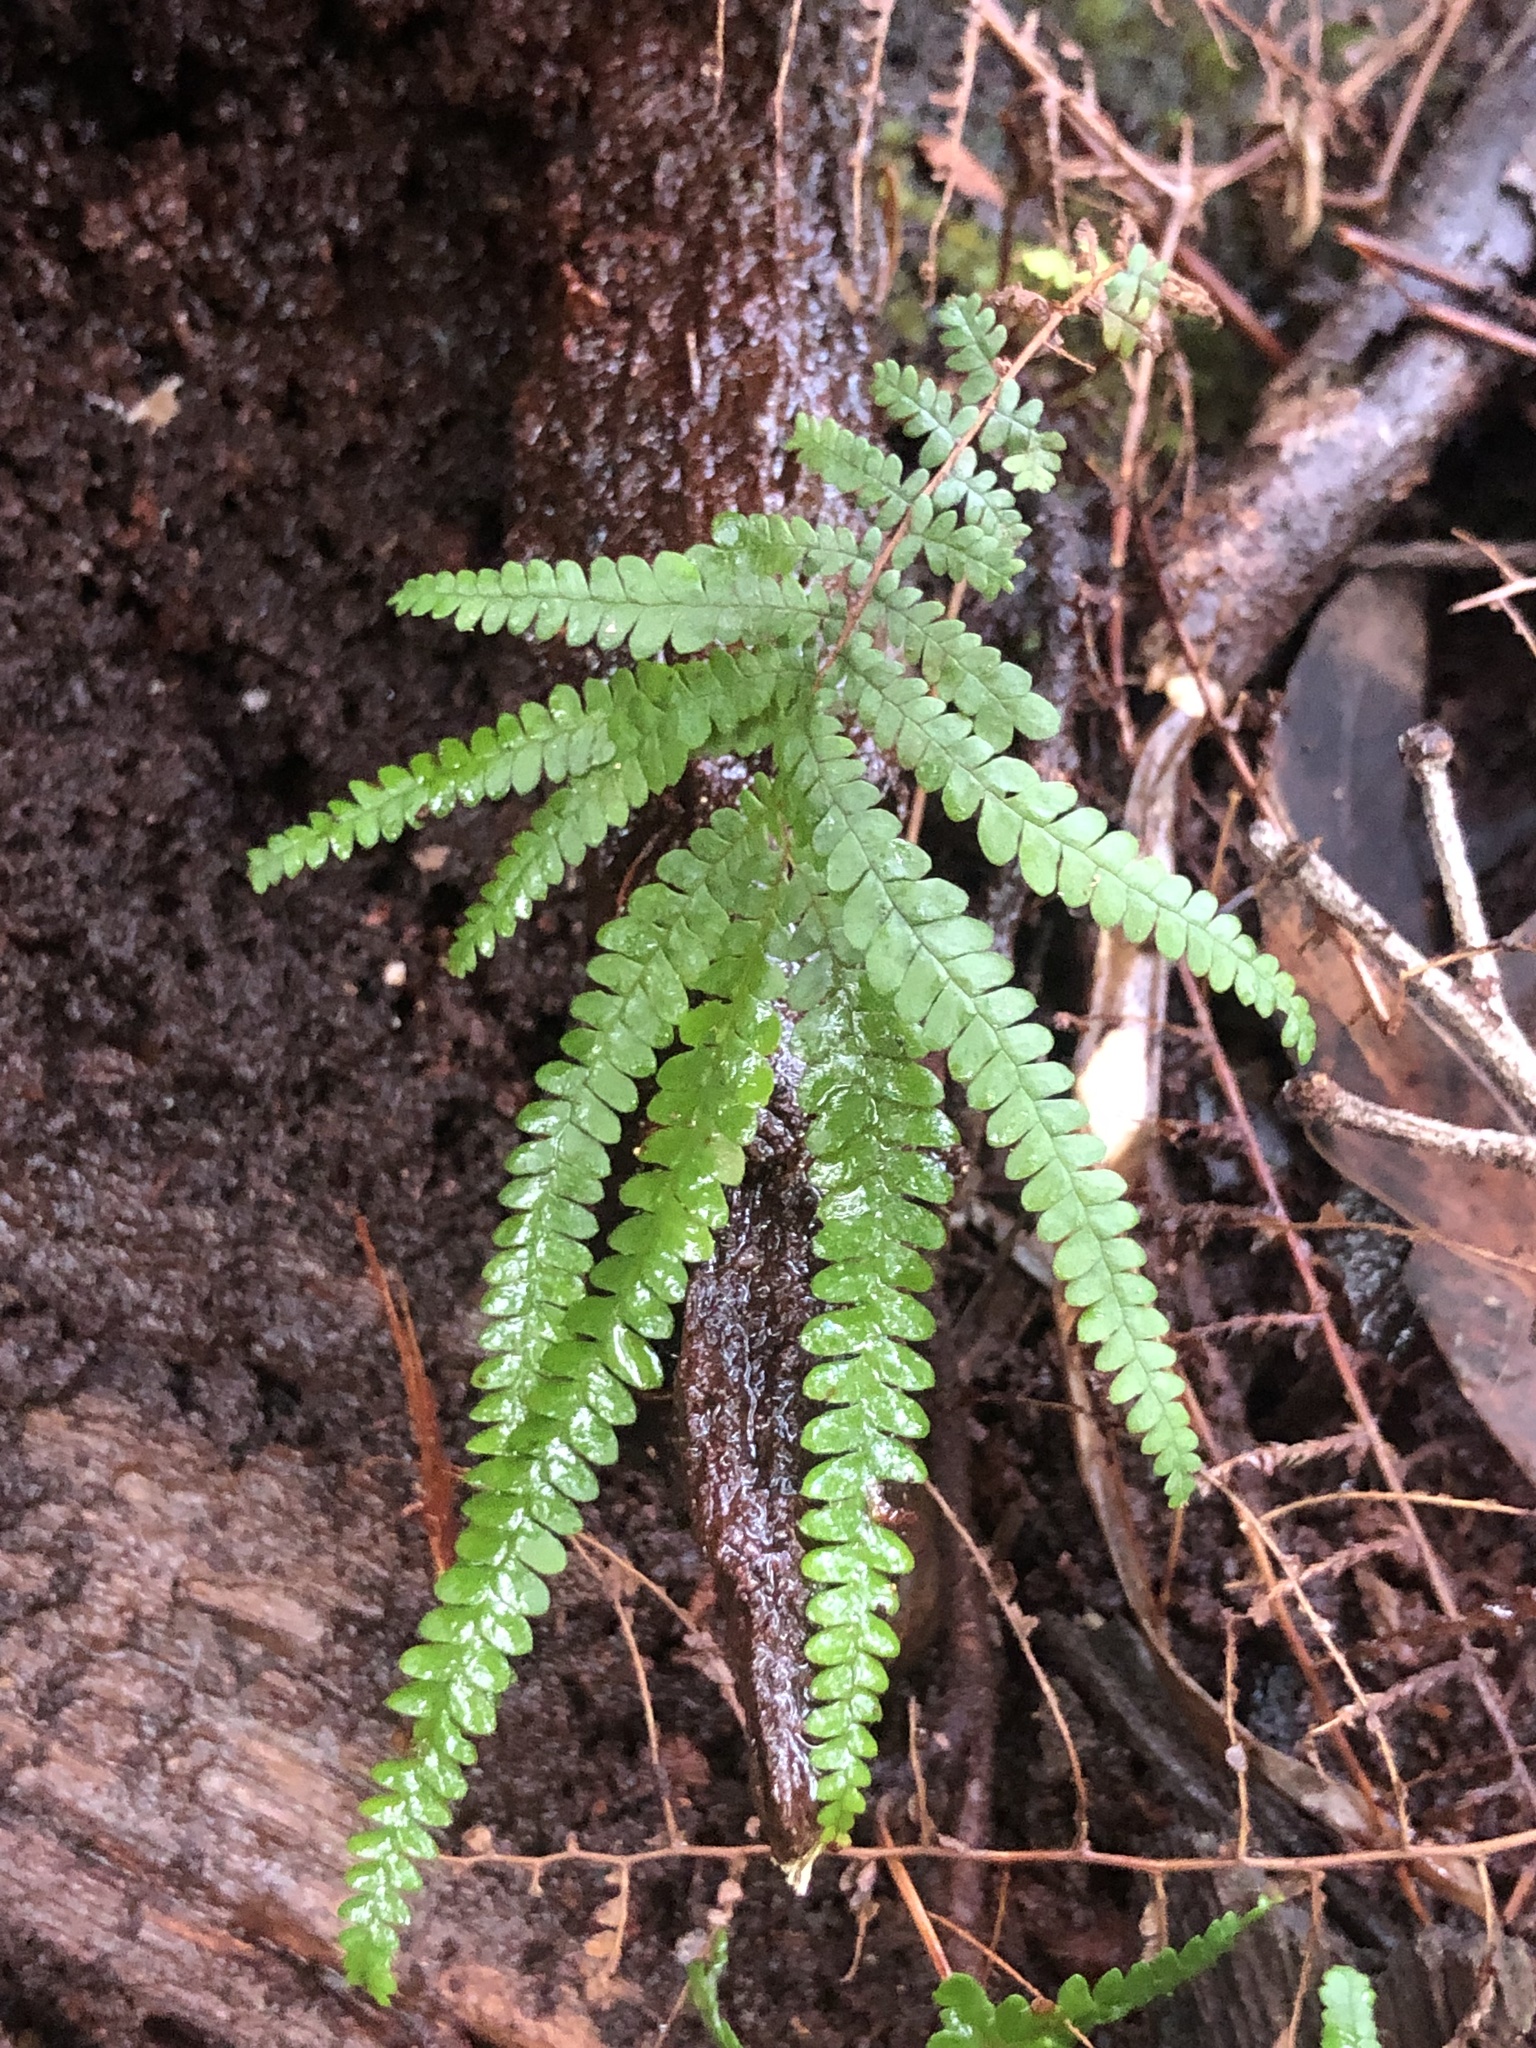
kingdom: Plantae
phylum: Tracheophyta
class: Polypodiopsida
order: Gleicheniales
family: Gleicheniaceae
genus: Gleichenia
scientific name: Gleichenia rupestris
